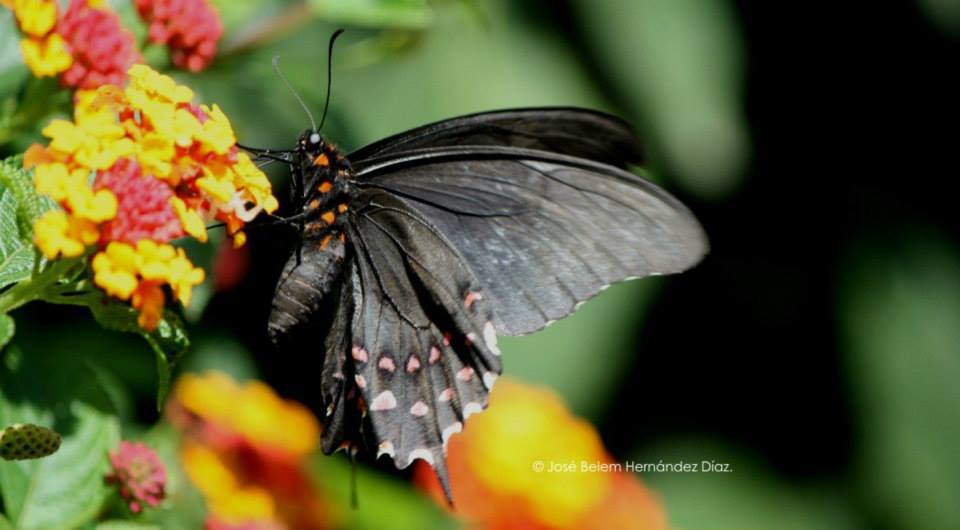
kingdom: Animalia
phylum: Arthropoda
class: Insecta
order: Lepidoptera
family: Papilionidae
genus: Heraclides
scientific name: Heraclides rogeri
